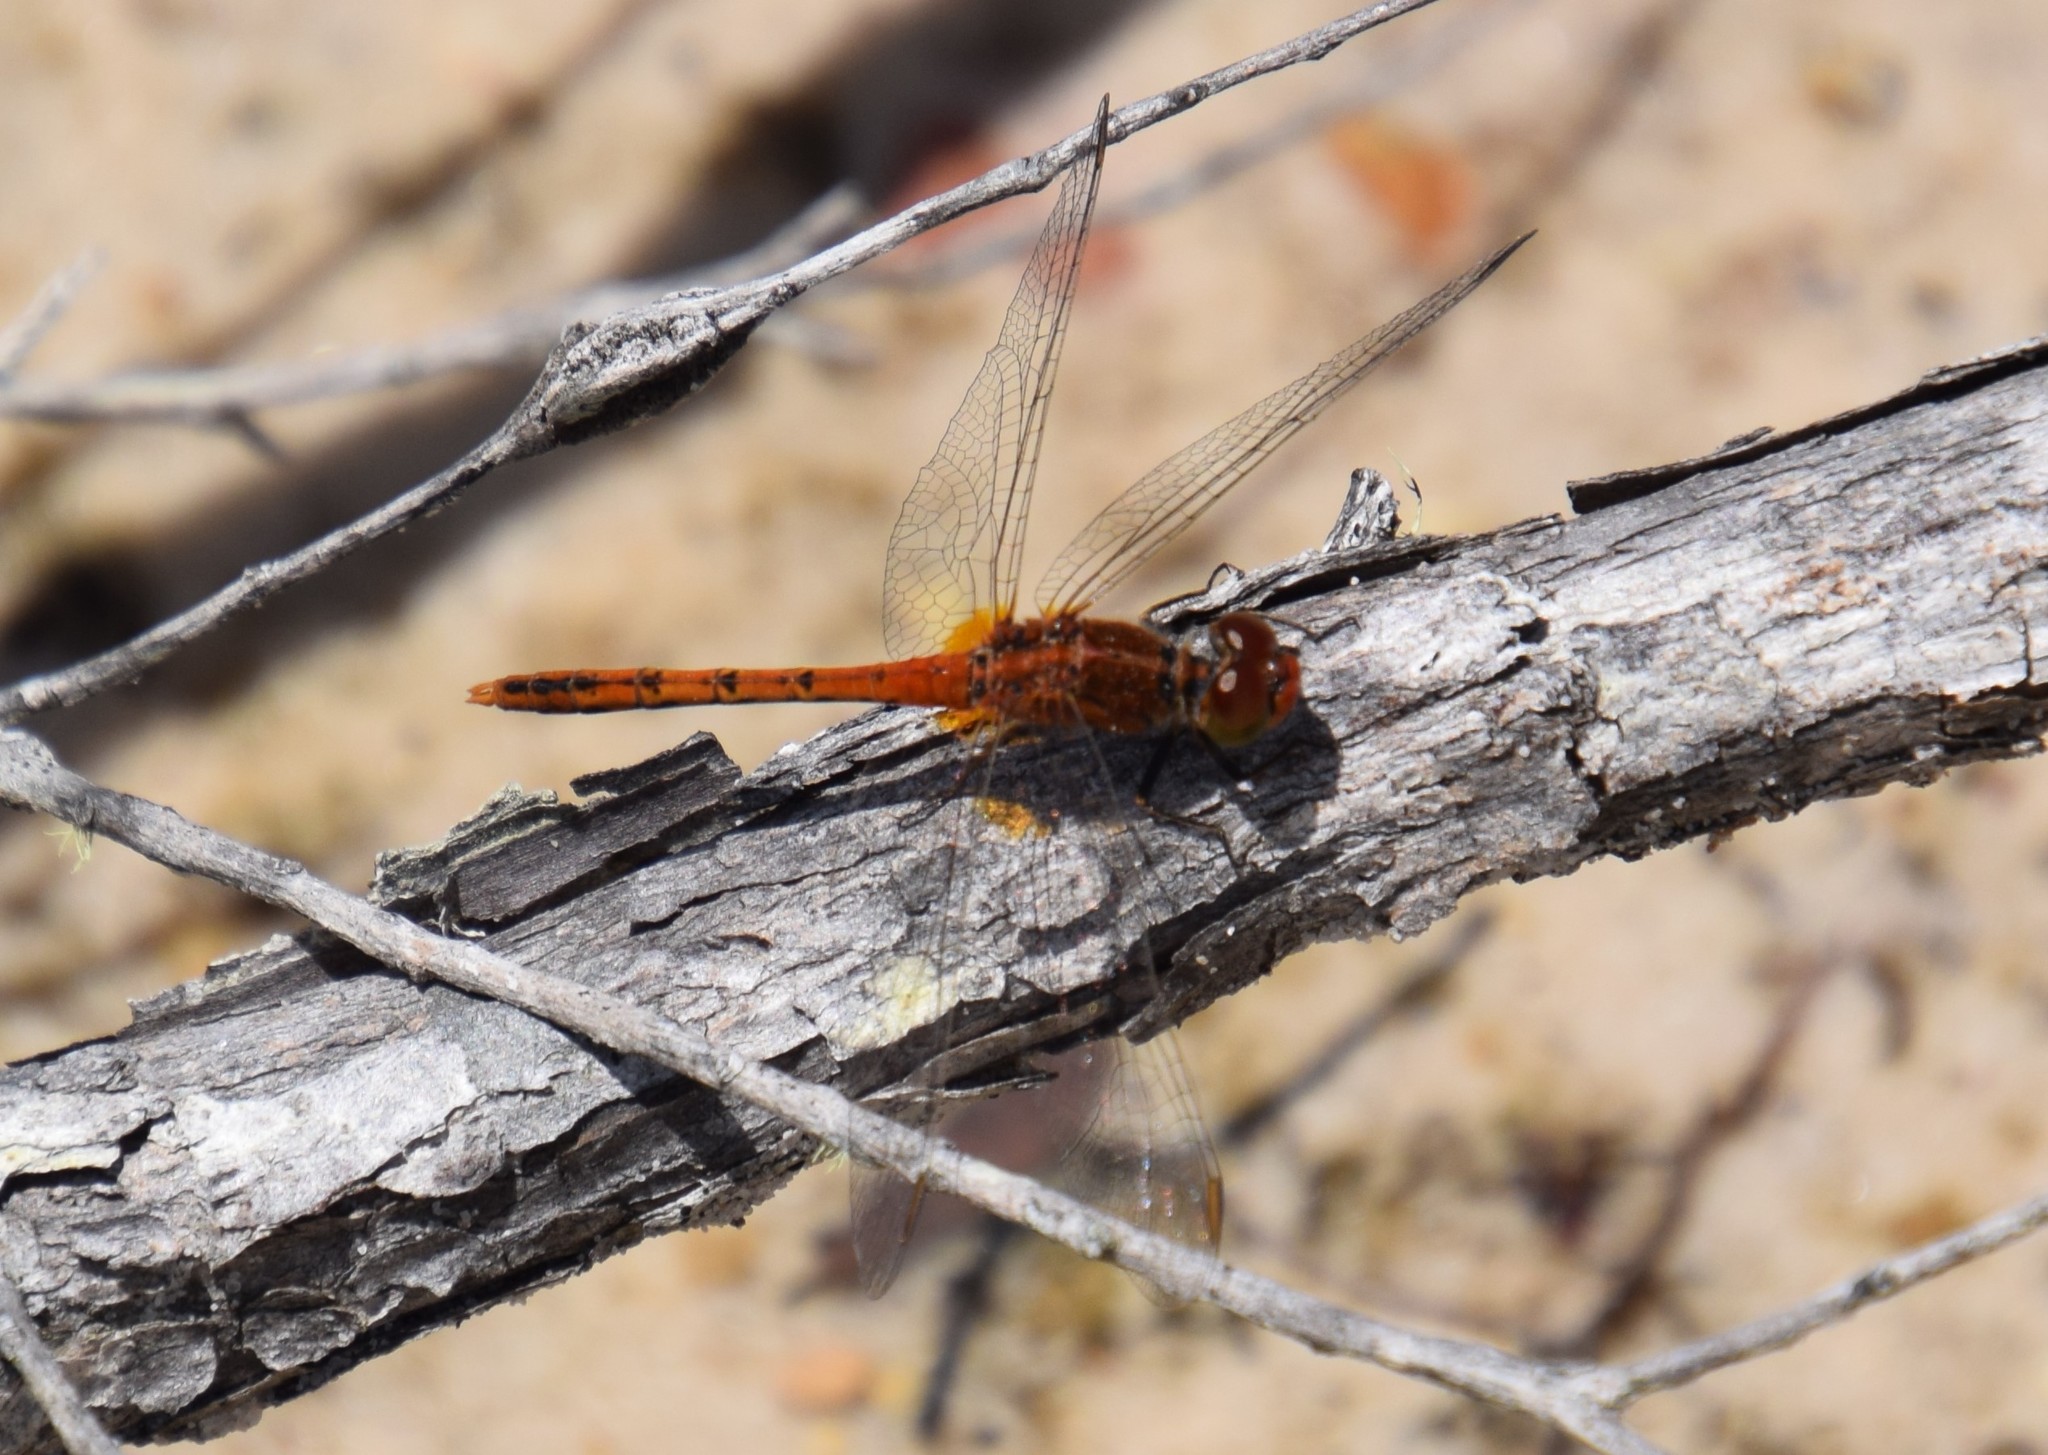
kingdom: Animalia
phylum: Arthropoda
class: Insecta
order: Odonata
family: Libellulidae
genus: Diplacodes
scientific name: Diplacodes bipunctata
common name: Red percher dragonfly
